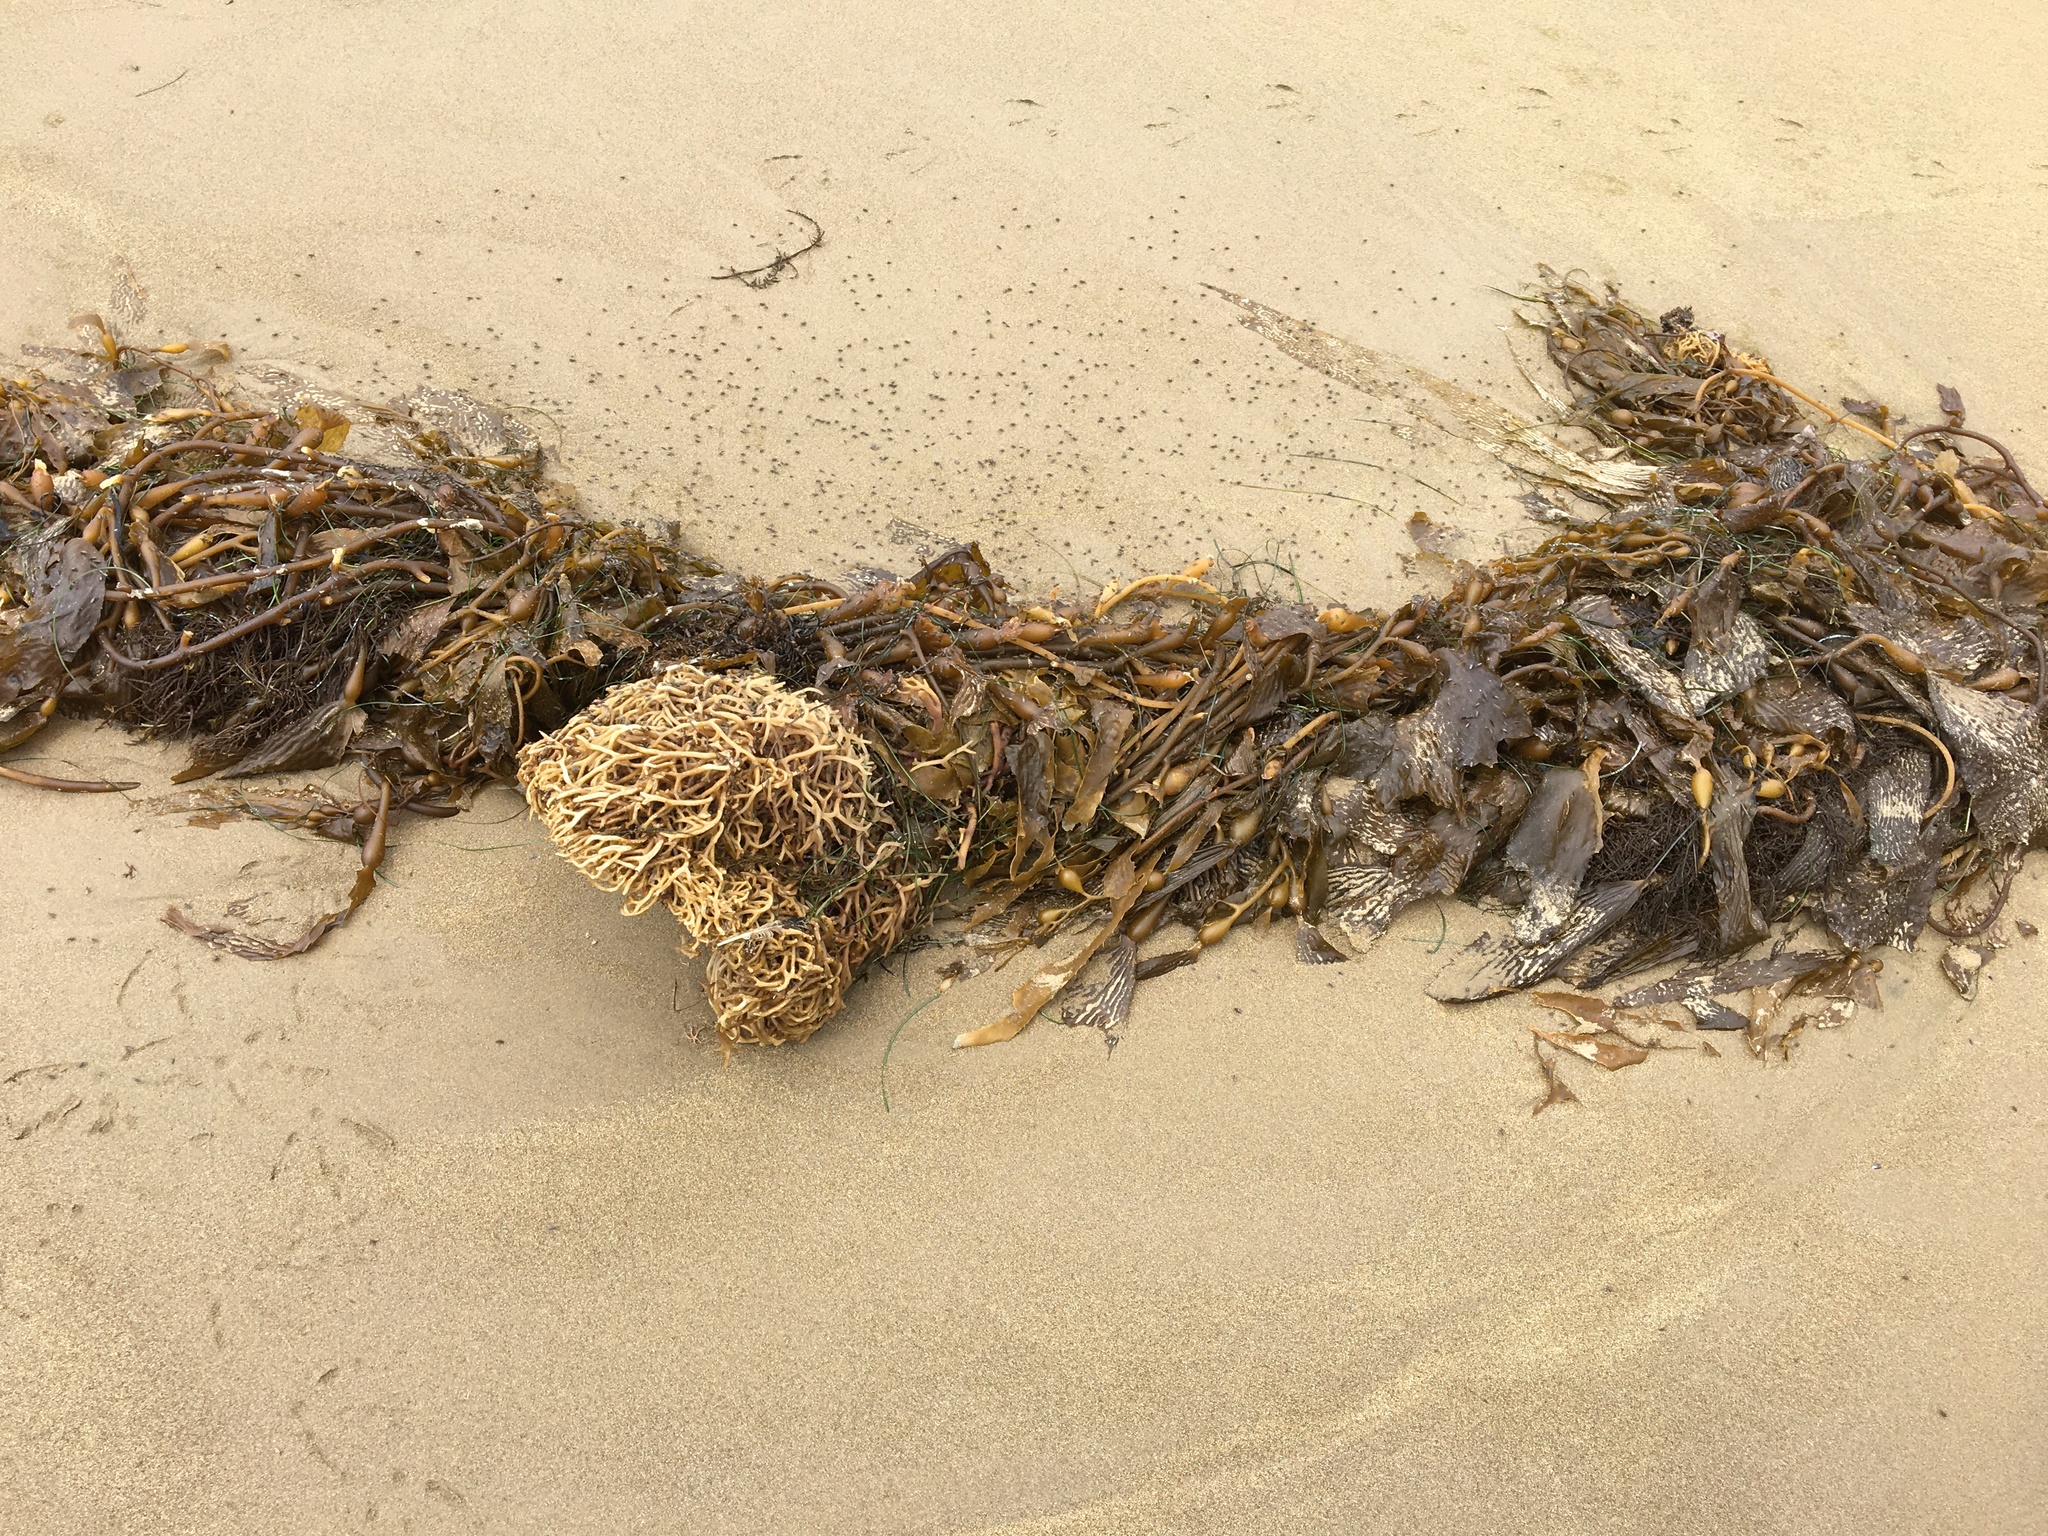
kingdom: Chromista
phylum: Ochrophyta
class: Phaeophyceae
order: Laminariales
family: Laminariaceae
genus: Macrocystis
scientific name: Macrocystis pyrifera
